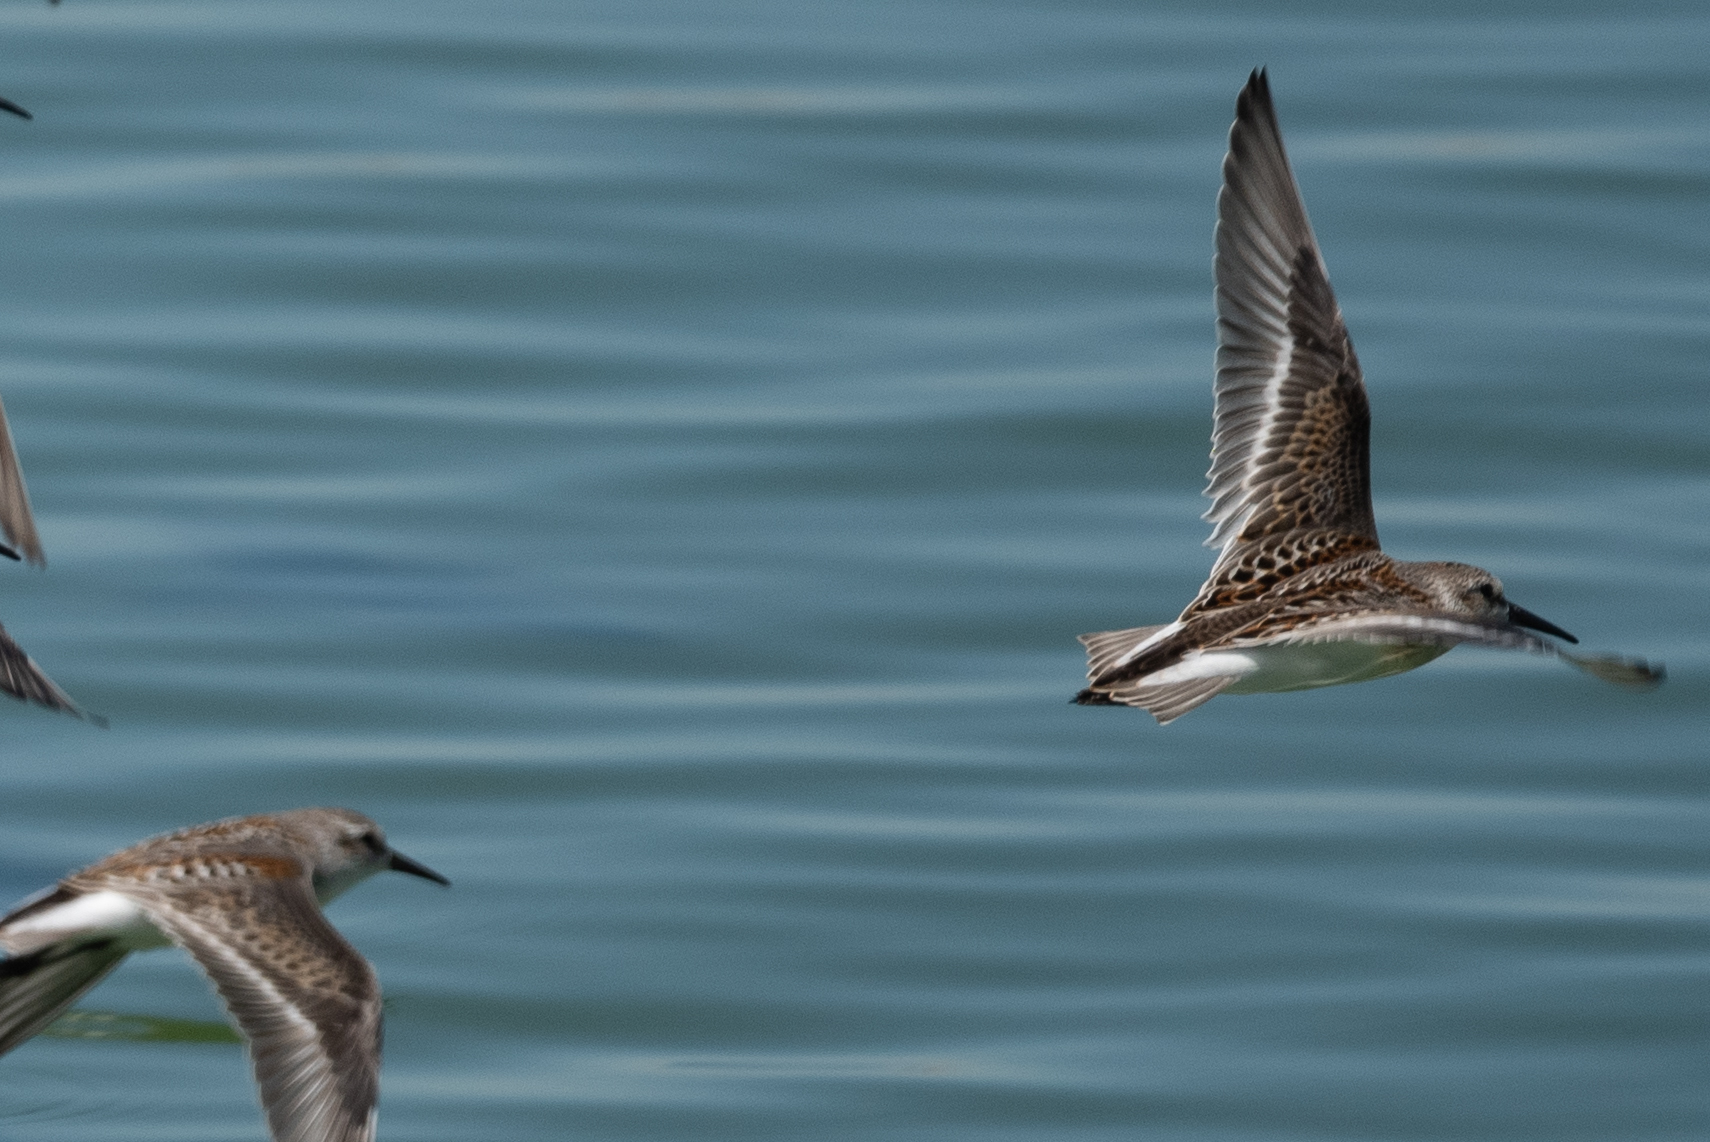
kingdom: Animalia
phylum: Chordata
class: Aves
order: Charadriiformes
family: Scolopacidae
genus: Calidris
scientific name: Calidris mauri
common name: Western sandpiper
